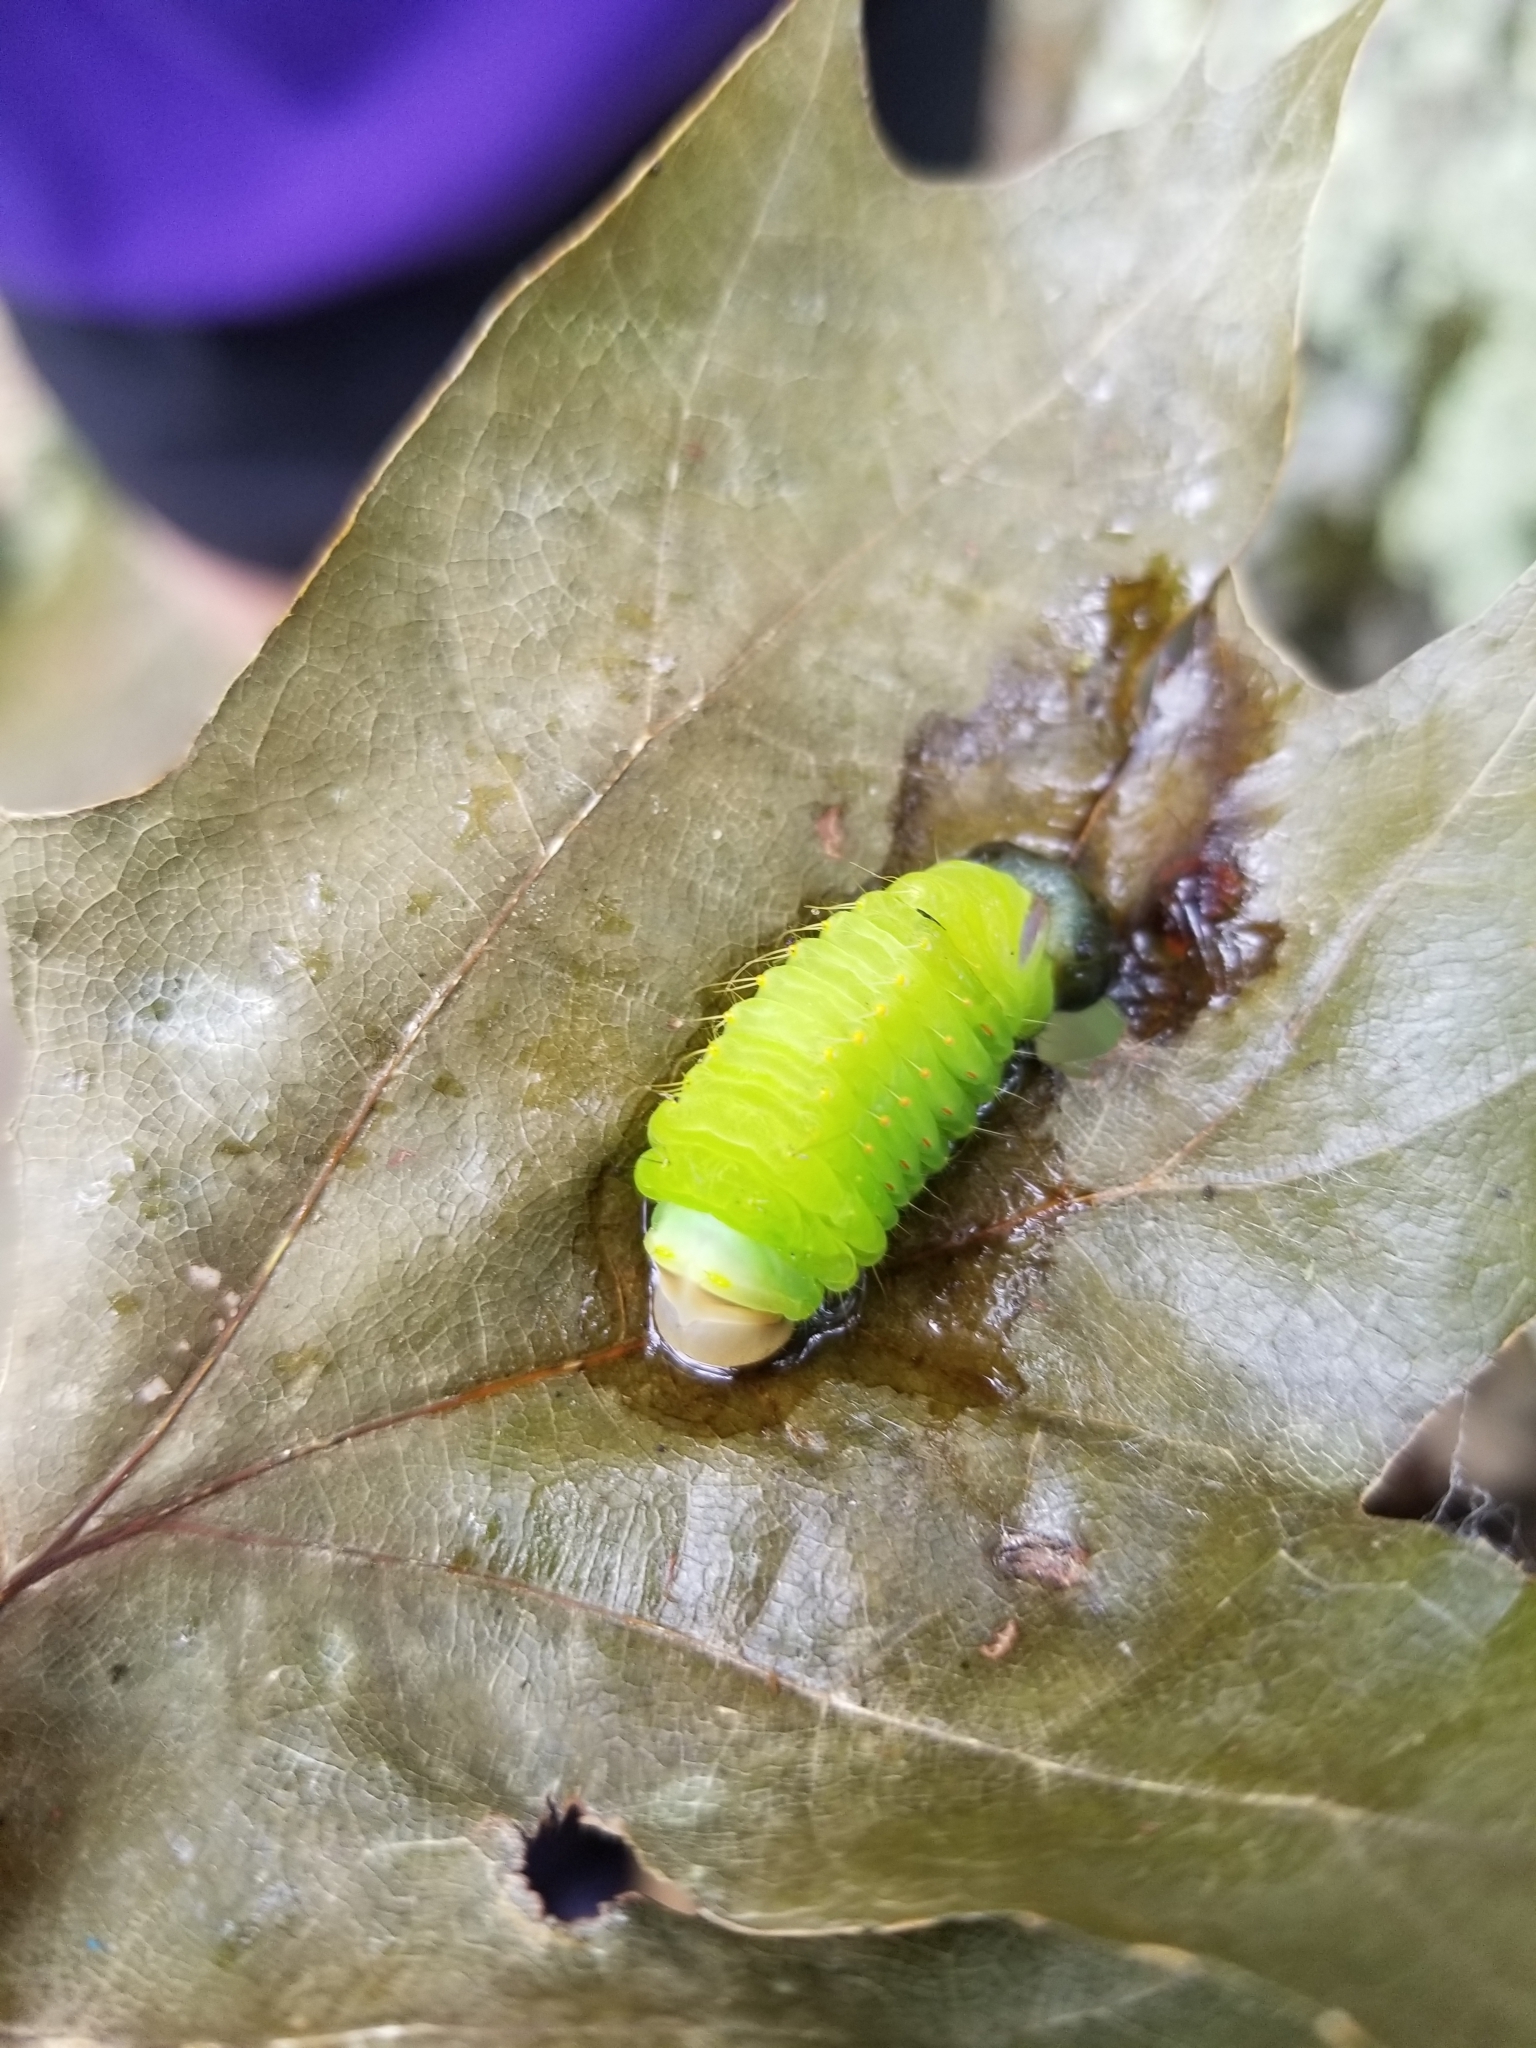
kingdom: Animalia
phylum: Arthropoda
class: Insecta
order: Lepidoptera
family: Saturniidae
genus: Antheraea
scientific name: Antheraea polyphemus
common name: Polyphemus moth
